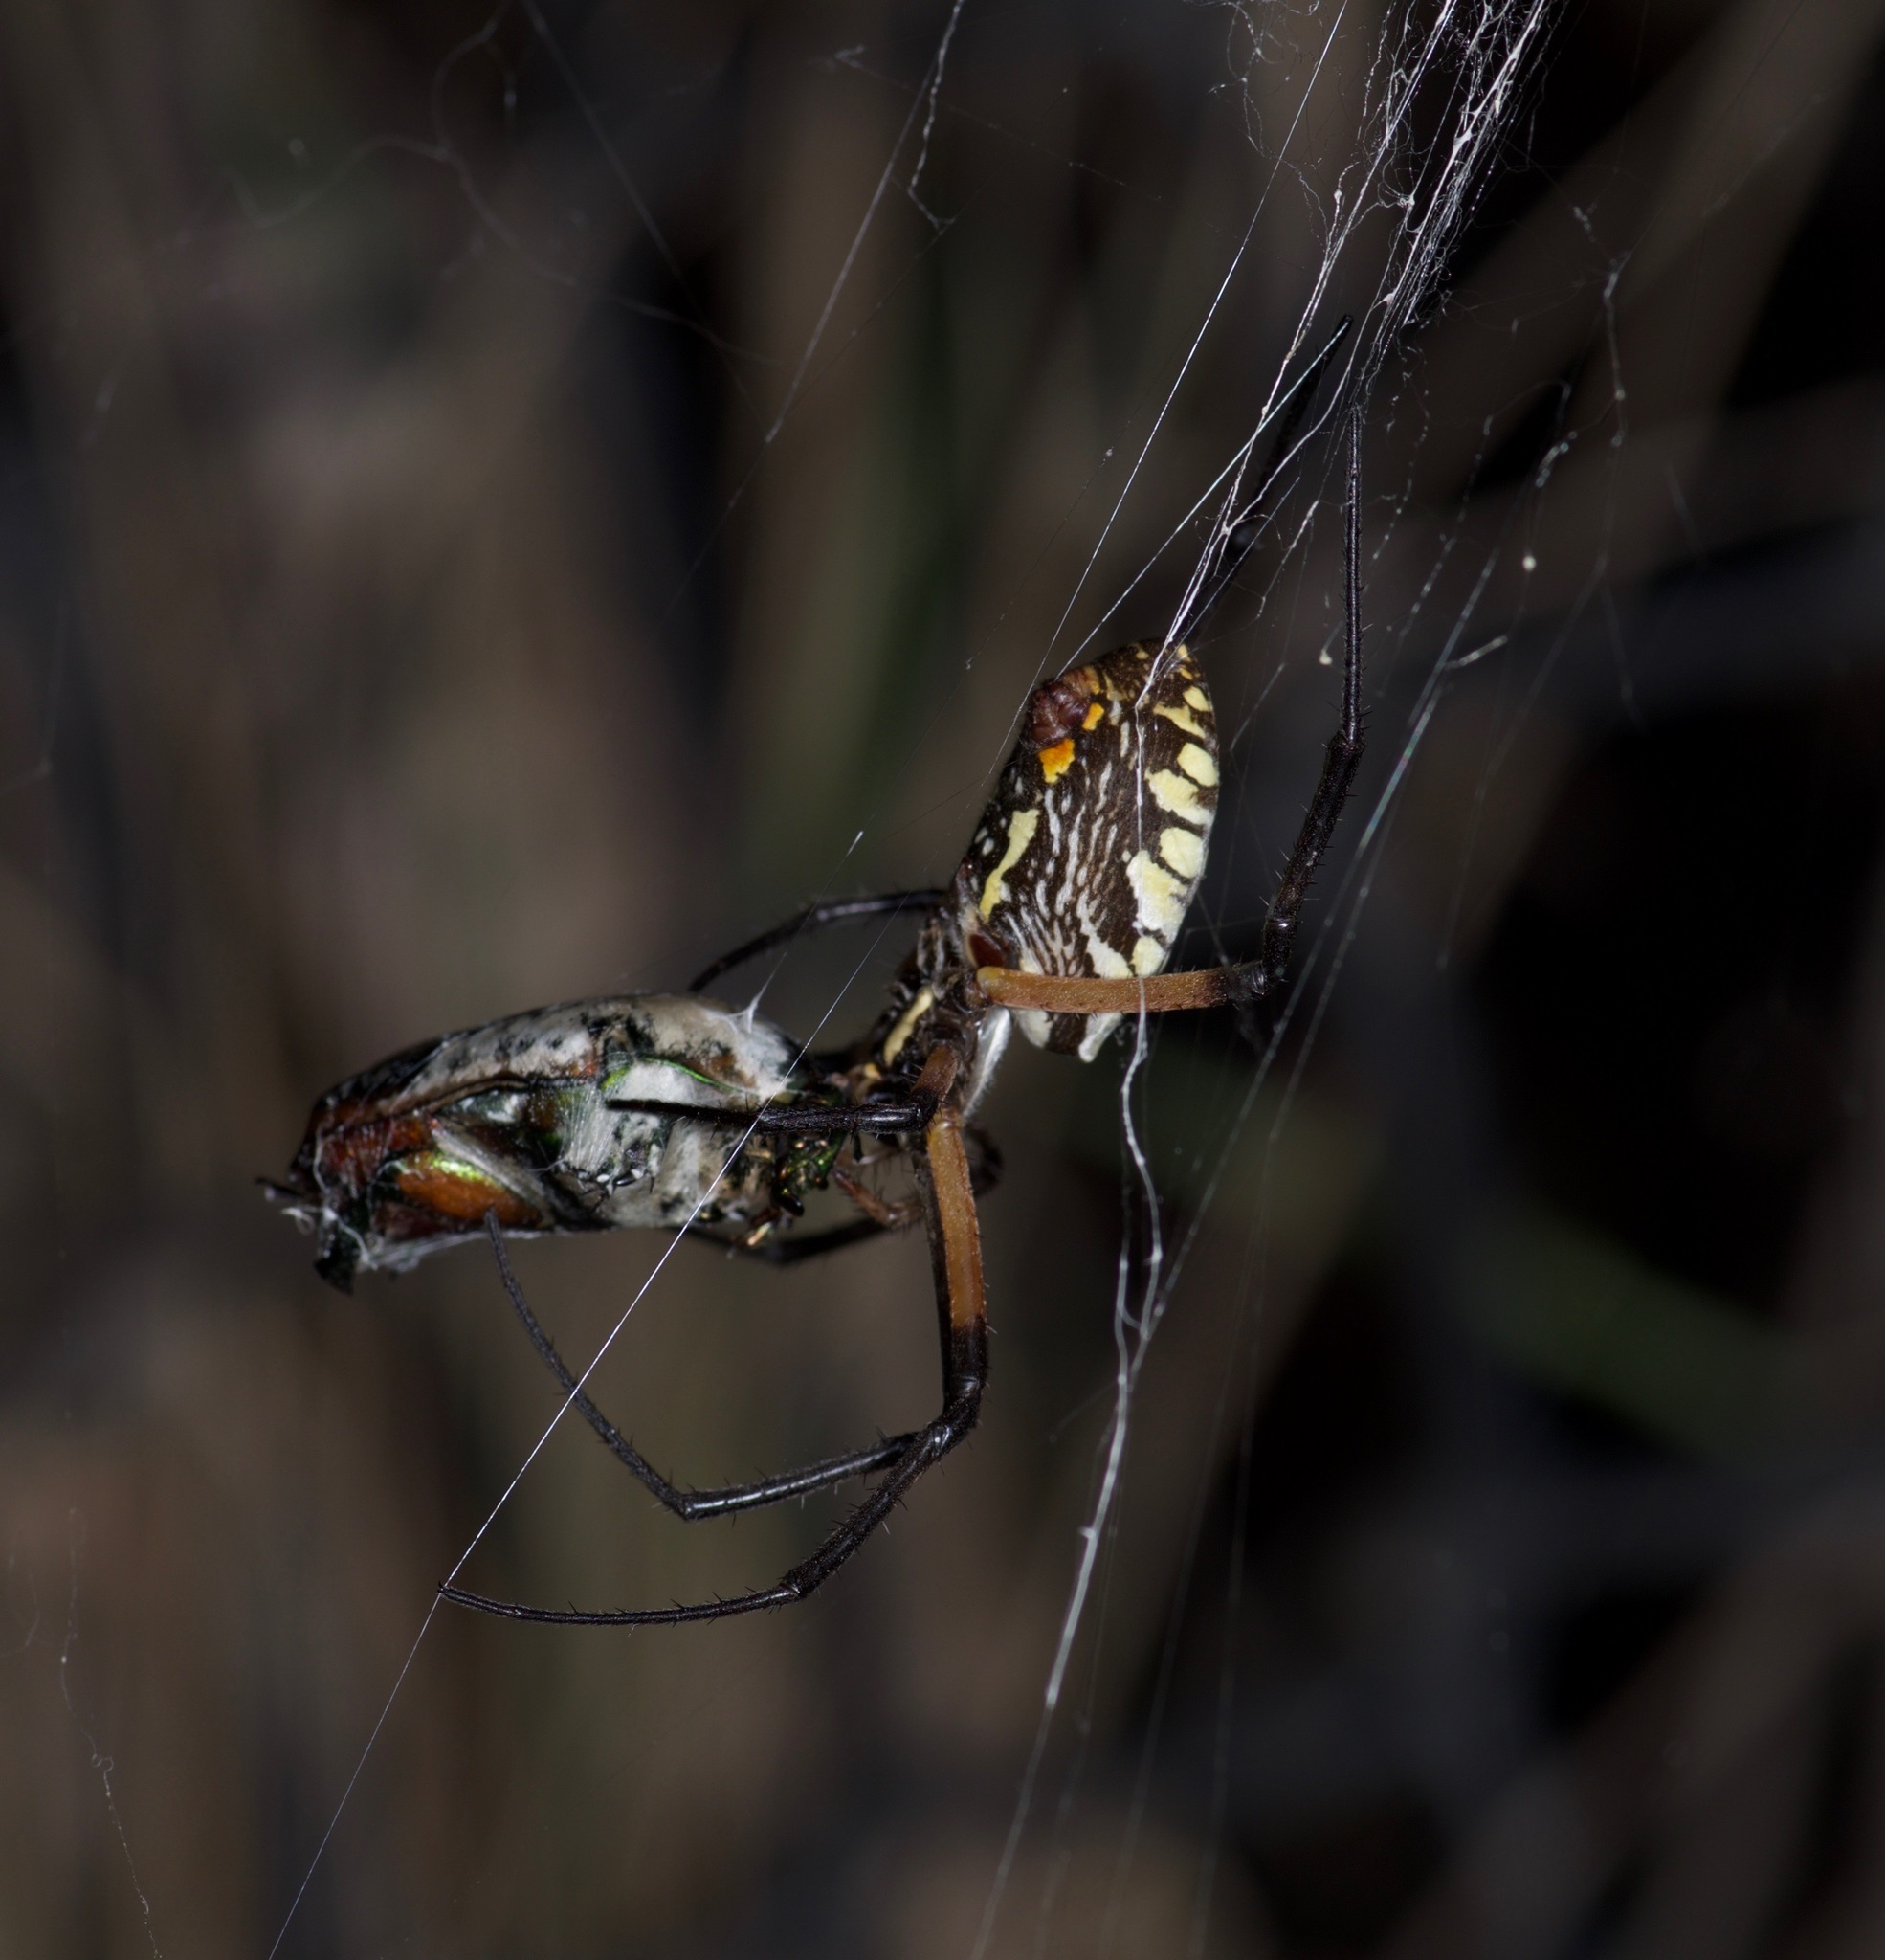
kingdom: Animalia
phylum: Arthropoda
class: Arachnida
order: Araneae
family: Araneidae
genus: Argiope
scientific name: Argiope aurantia
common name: Orb weavers
